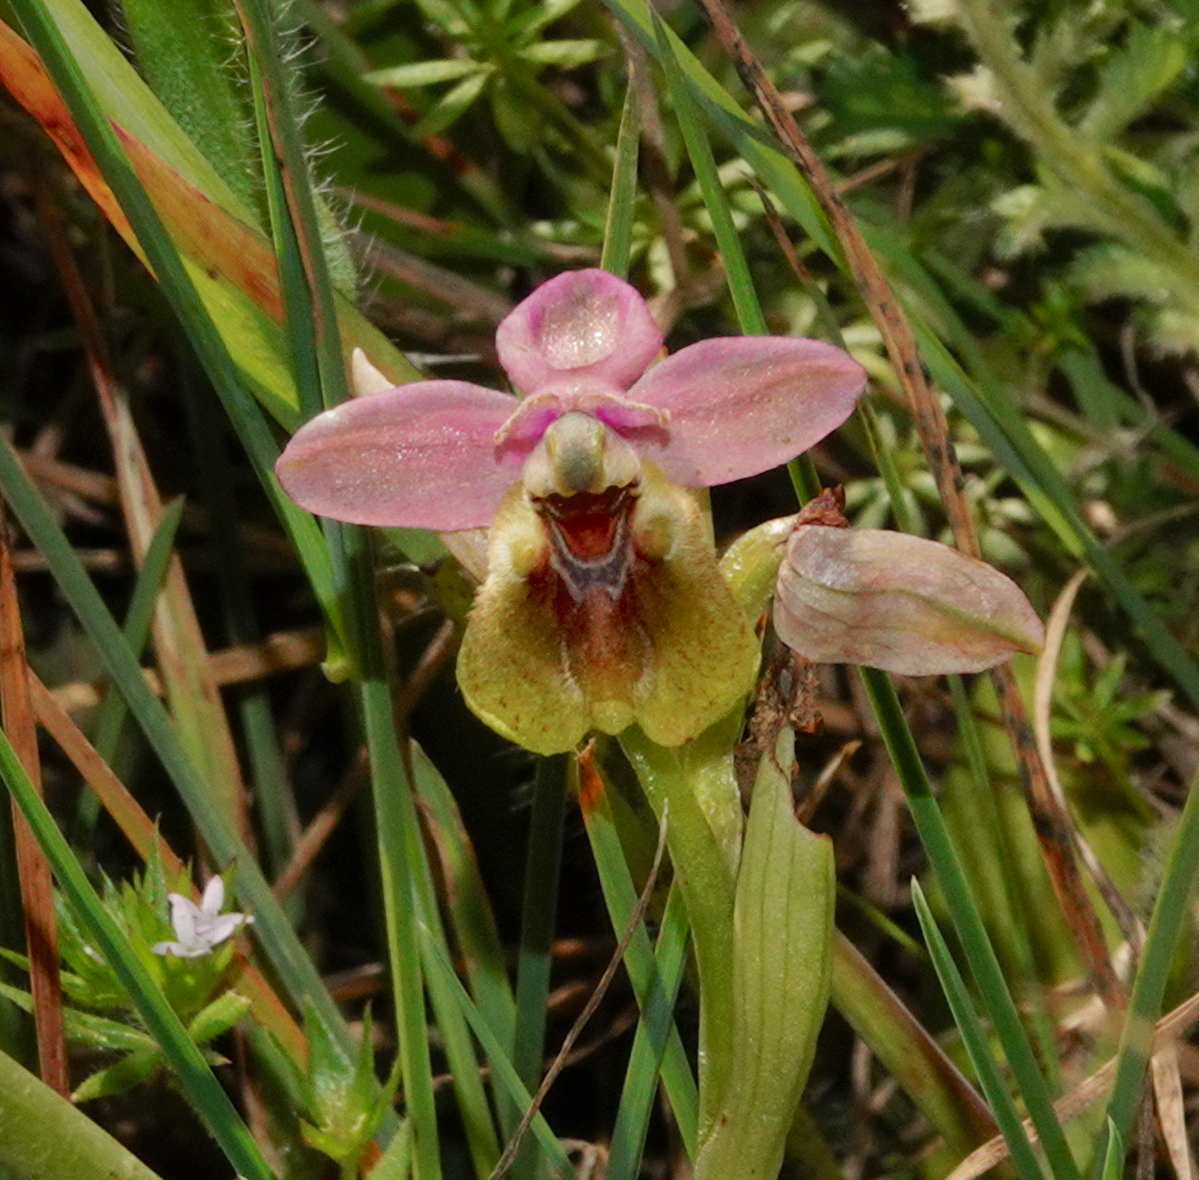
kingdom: Plantae
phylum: Tracheophyta
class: Liliopsida
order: Asparagales
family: Orchidaceae
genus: Ophrys
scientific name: Ophrys tenthredinifera
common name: Sawfly orchid
